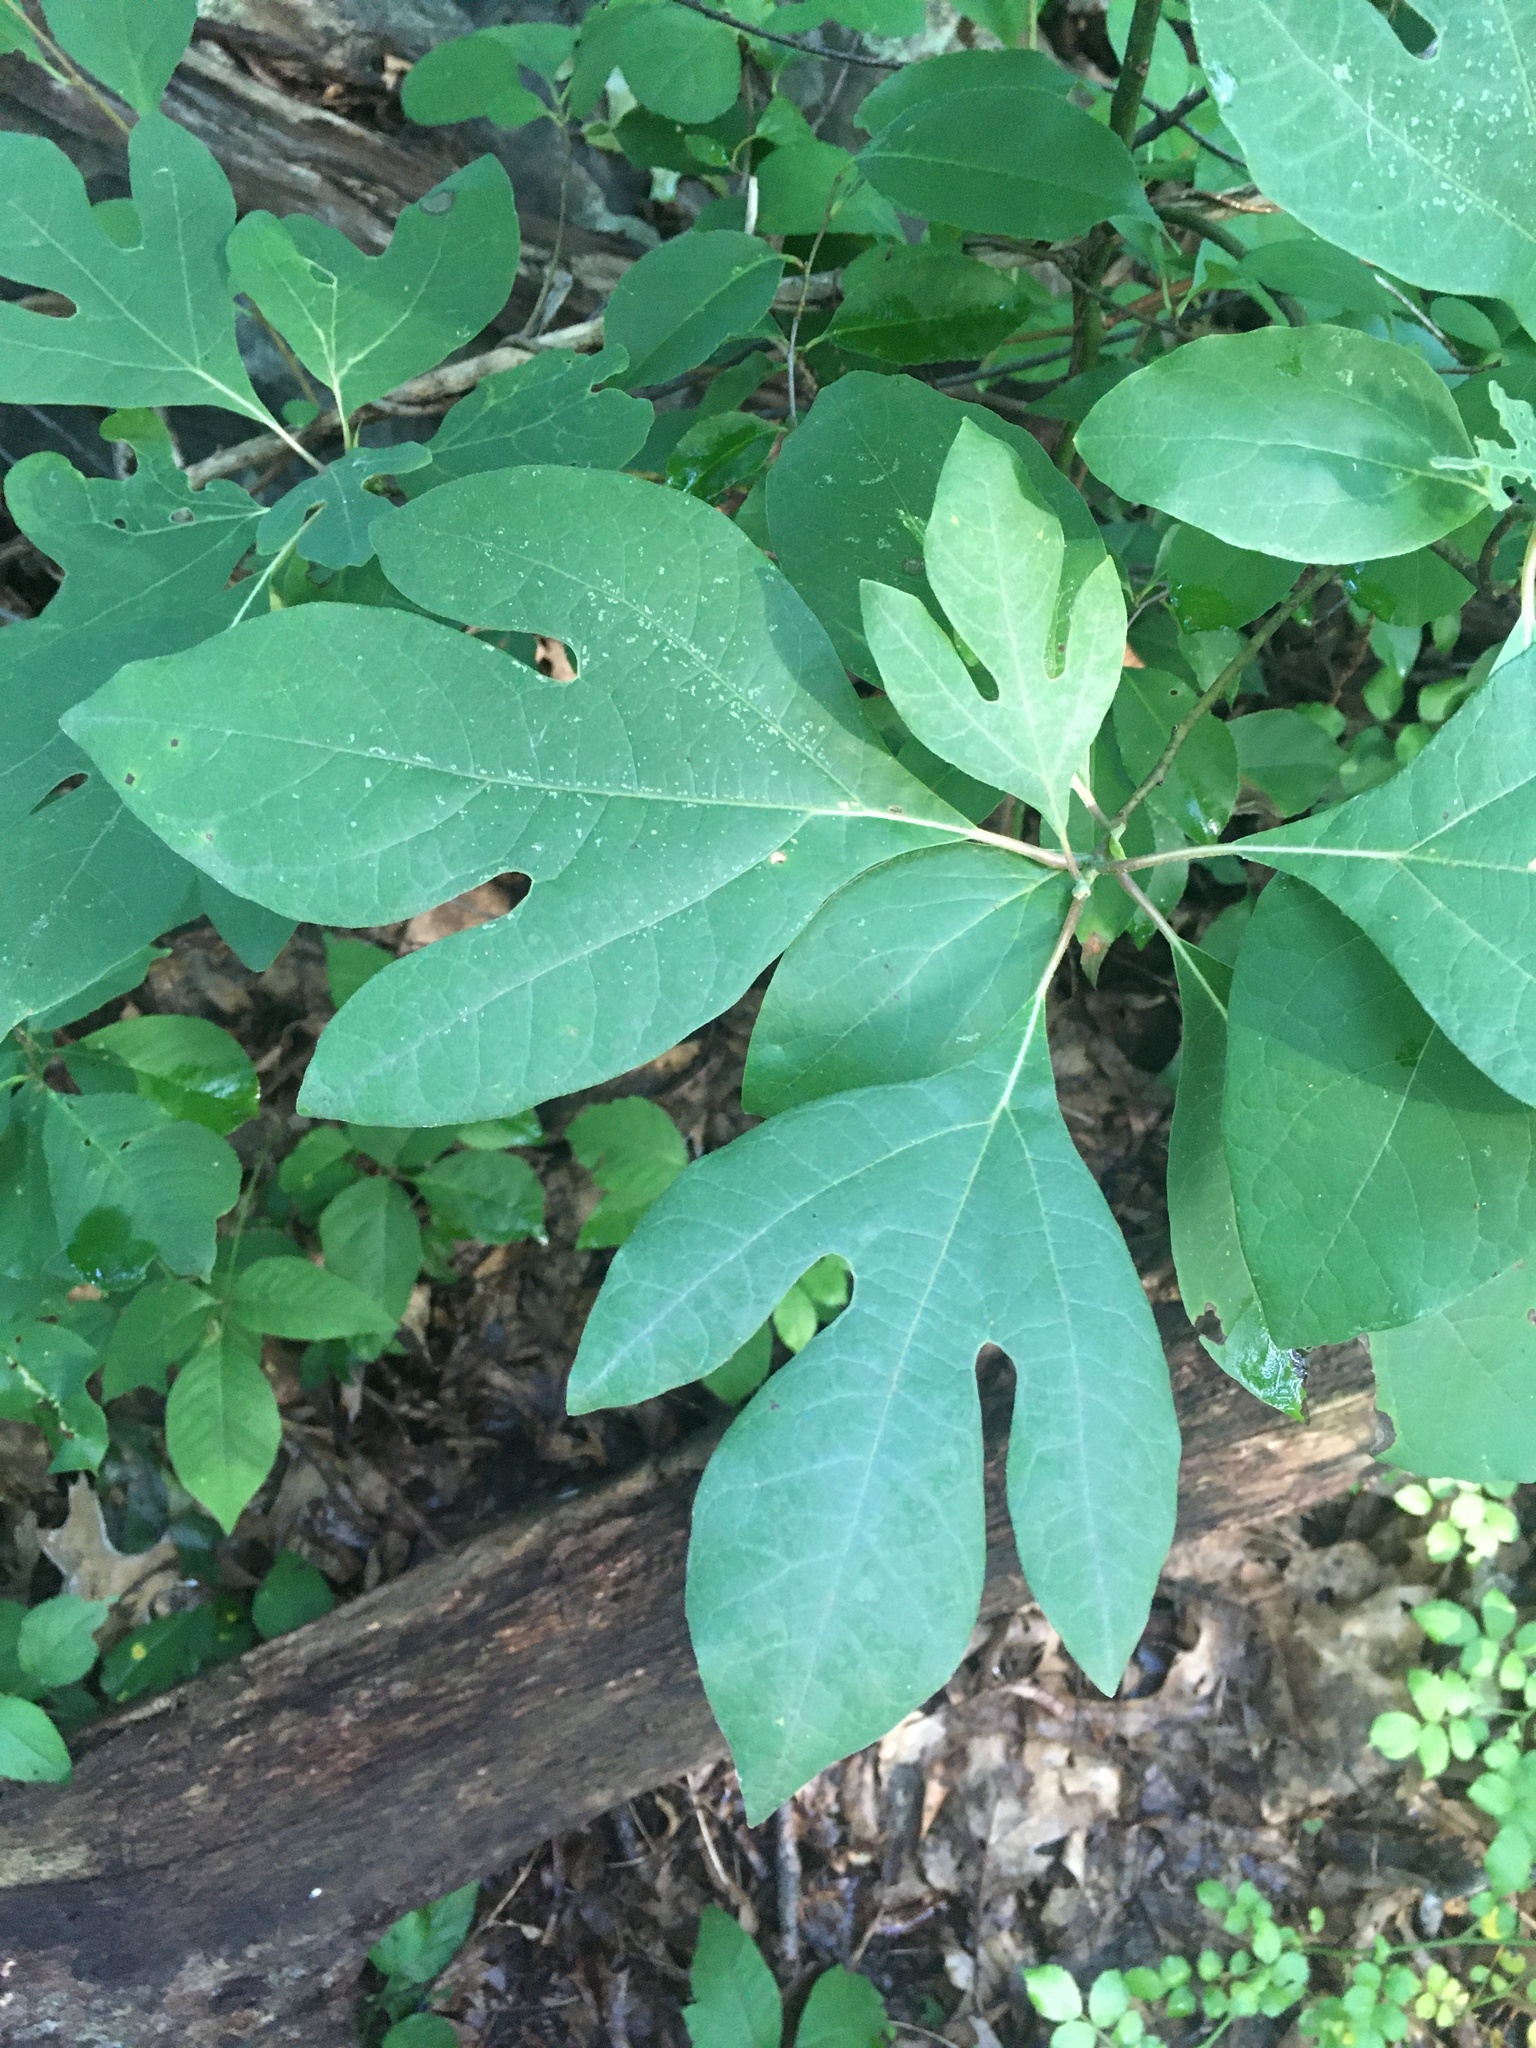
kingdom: Plantae
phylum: Tracheophyta
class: Magnoliopsida
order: Laurales
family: Lauraceae
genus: Sassafras
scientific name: Sassafras albidum
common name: Sassafras
